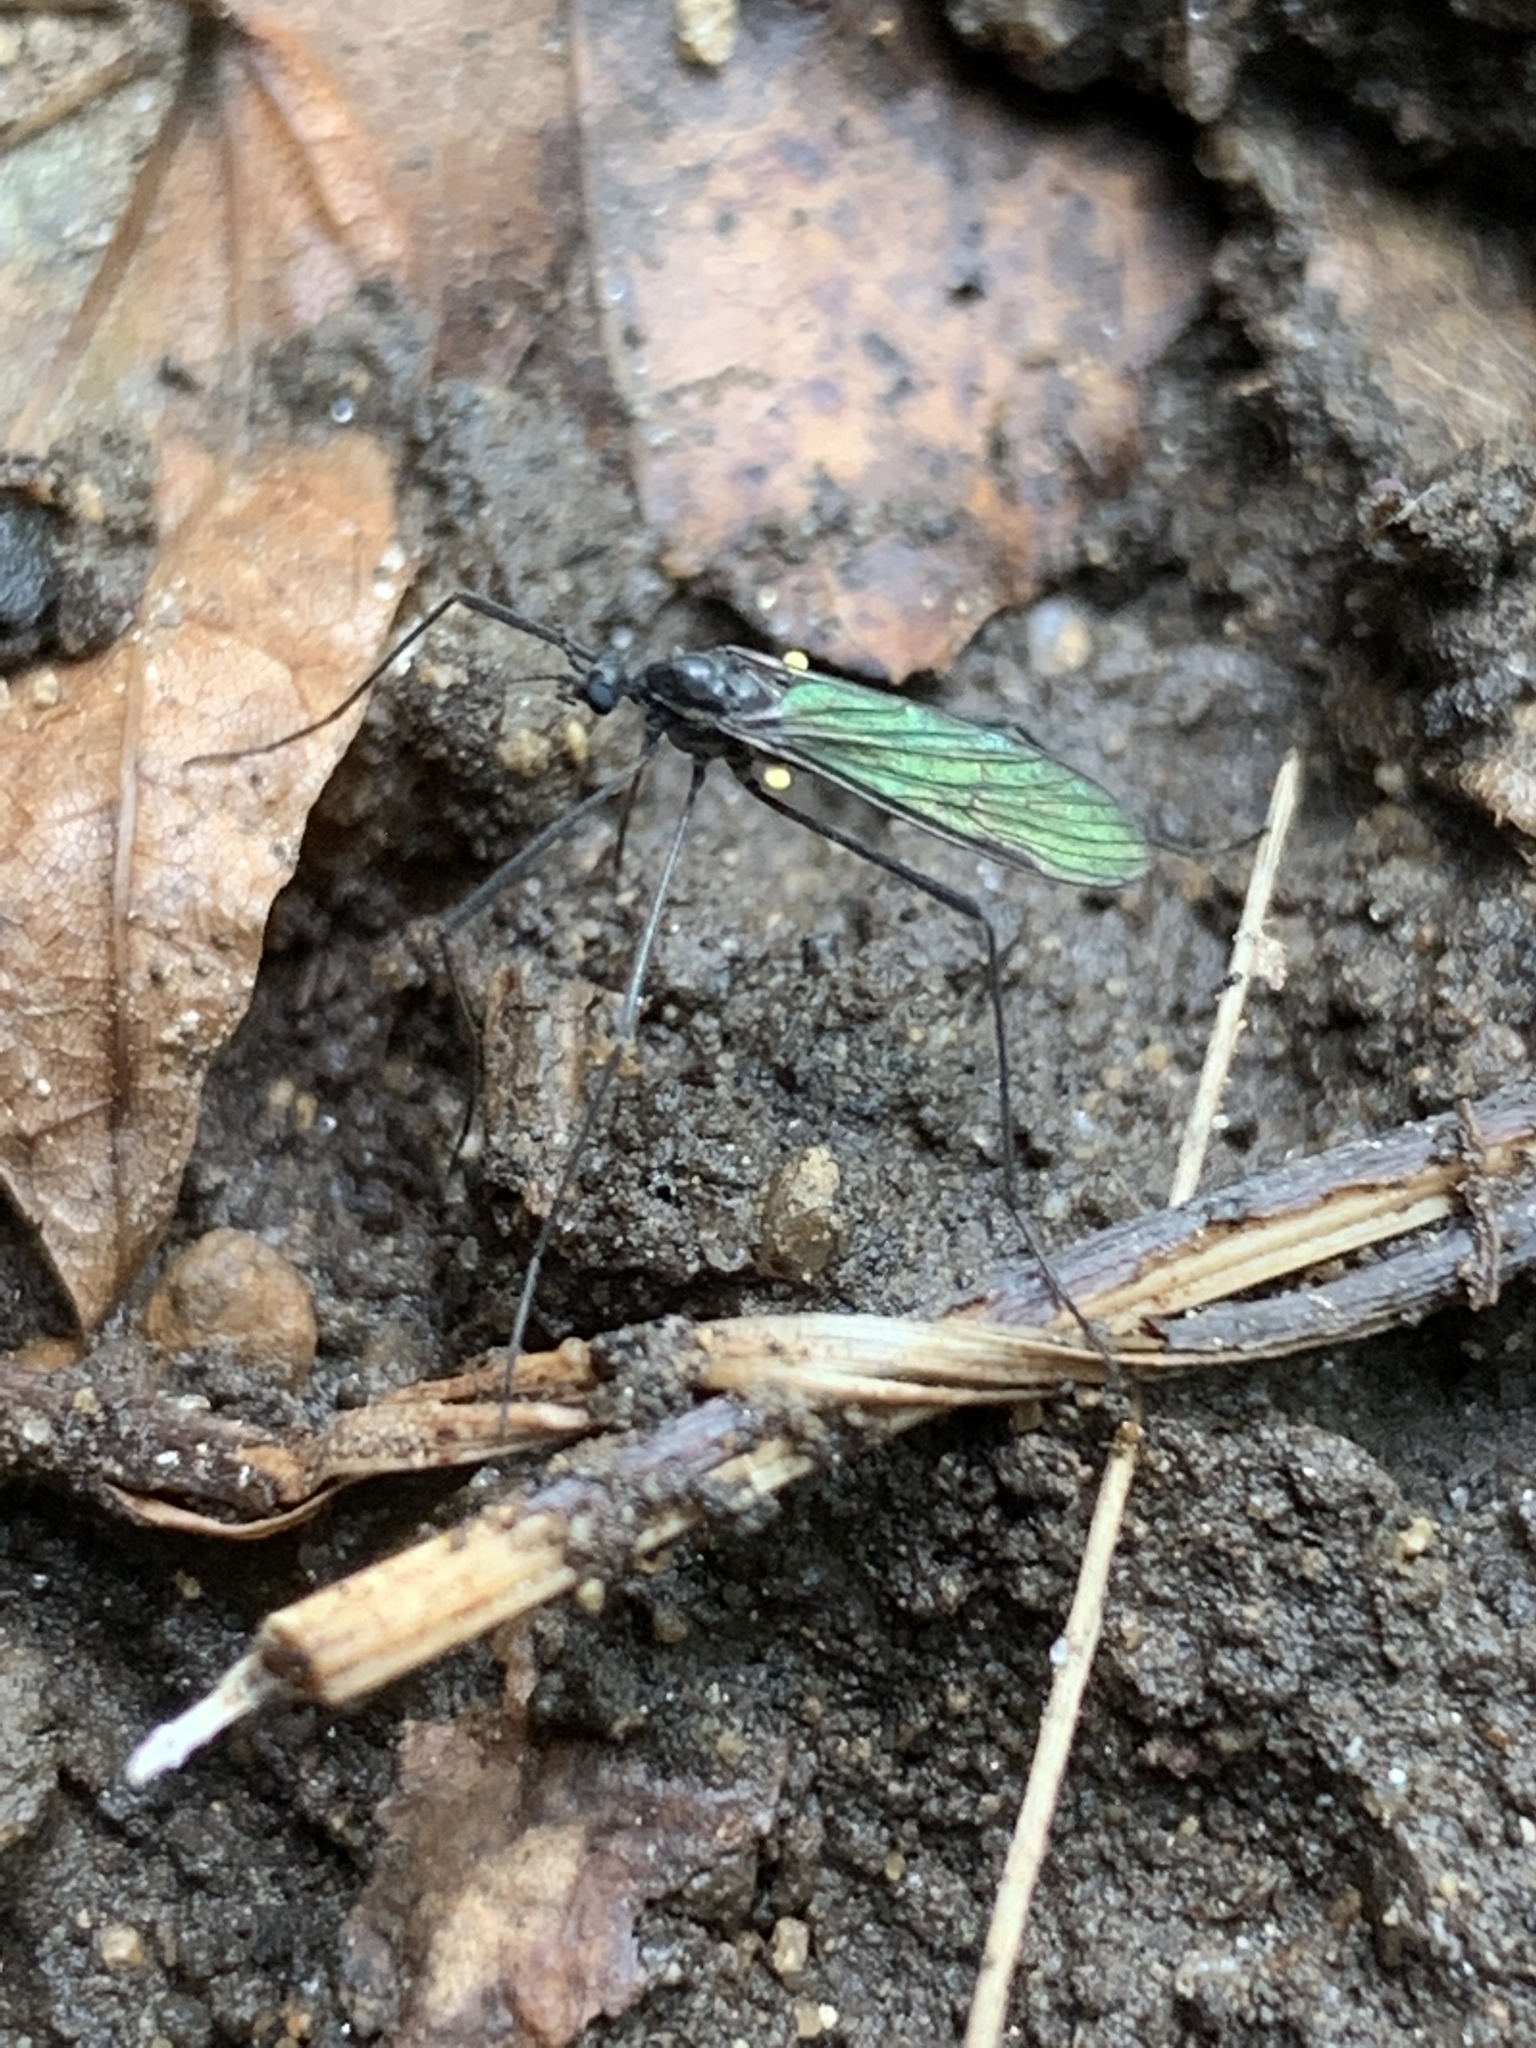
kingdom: Animalia
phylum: Arthropoda
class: Insecta
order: Diptera
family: Limoniidae
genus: Gnophomyia
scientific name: Gnophomyia tristissima
